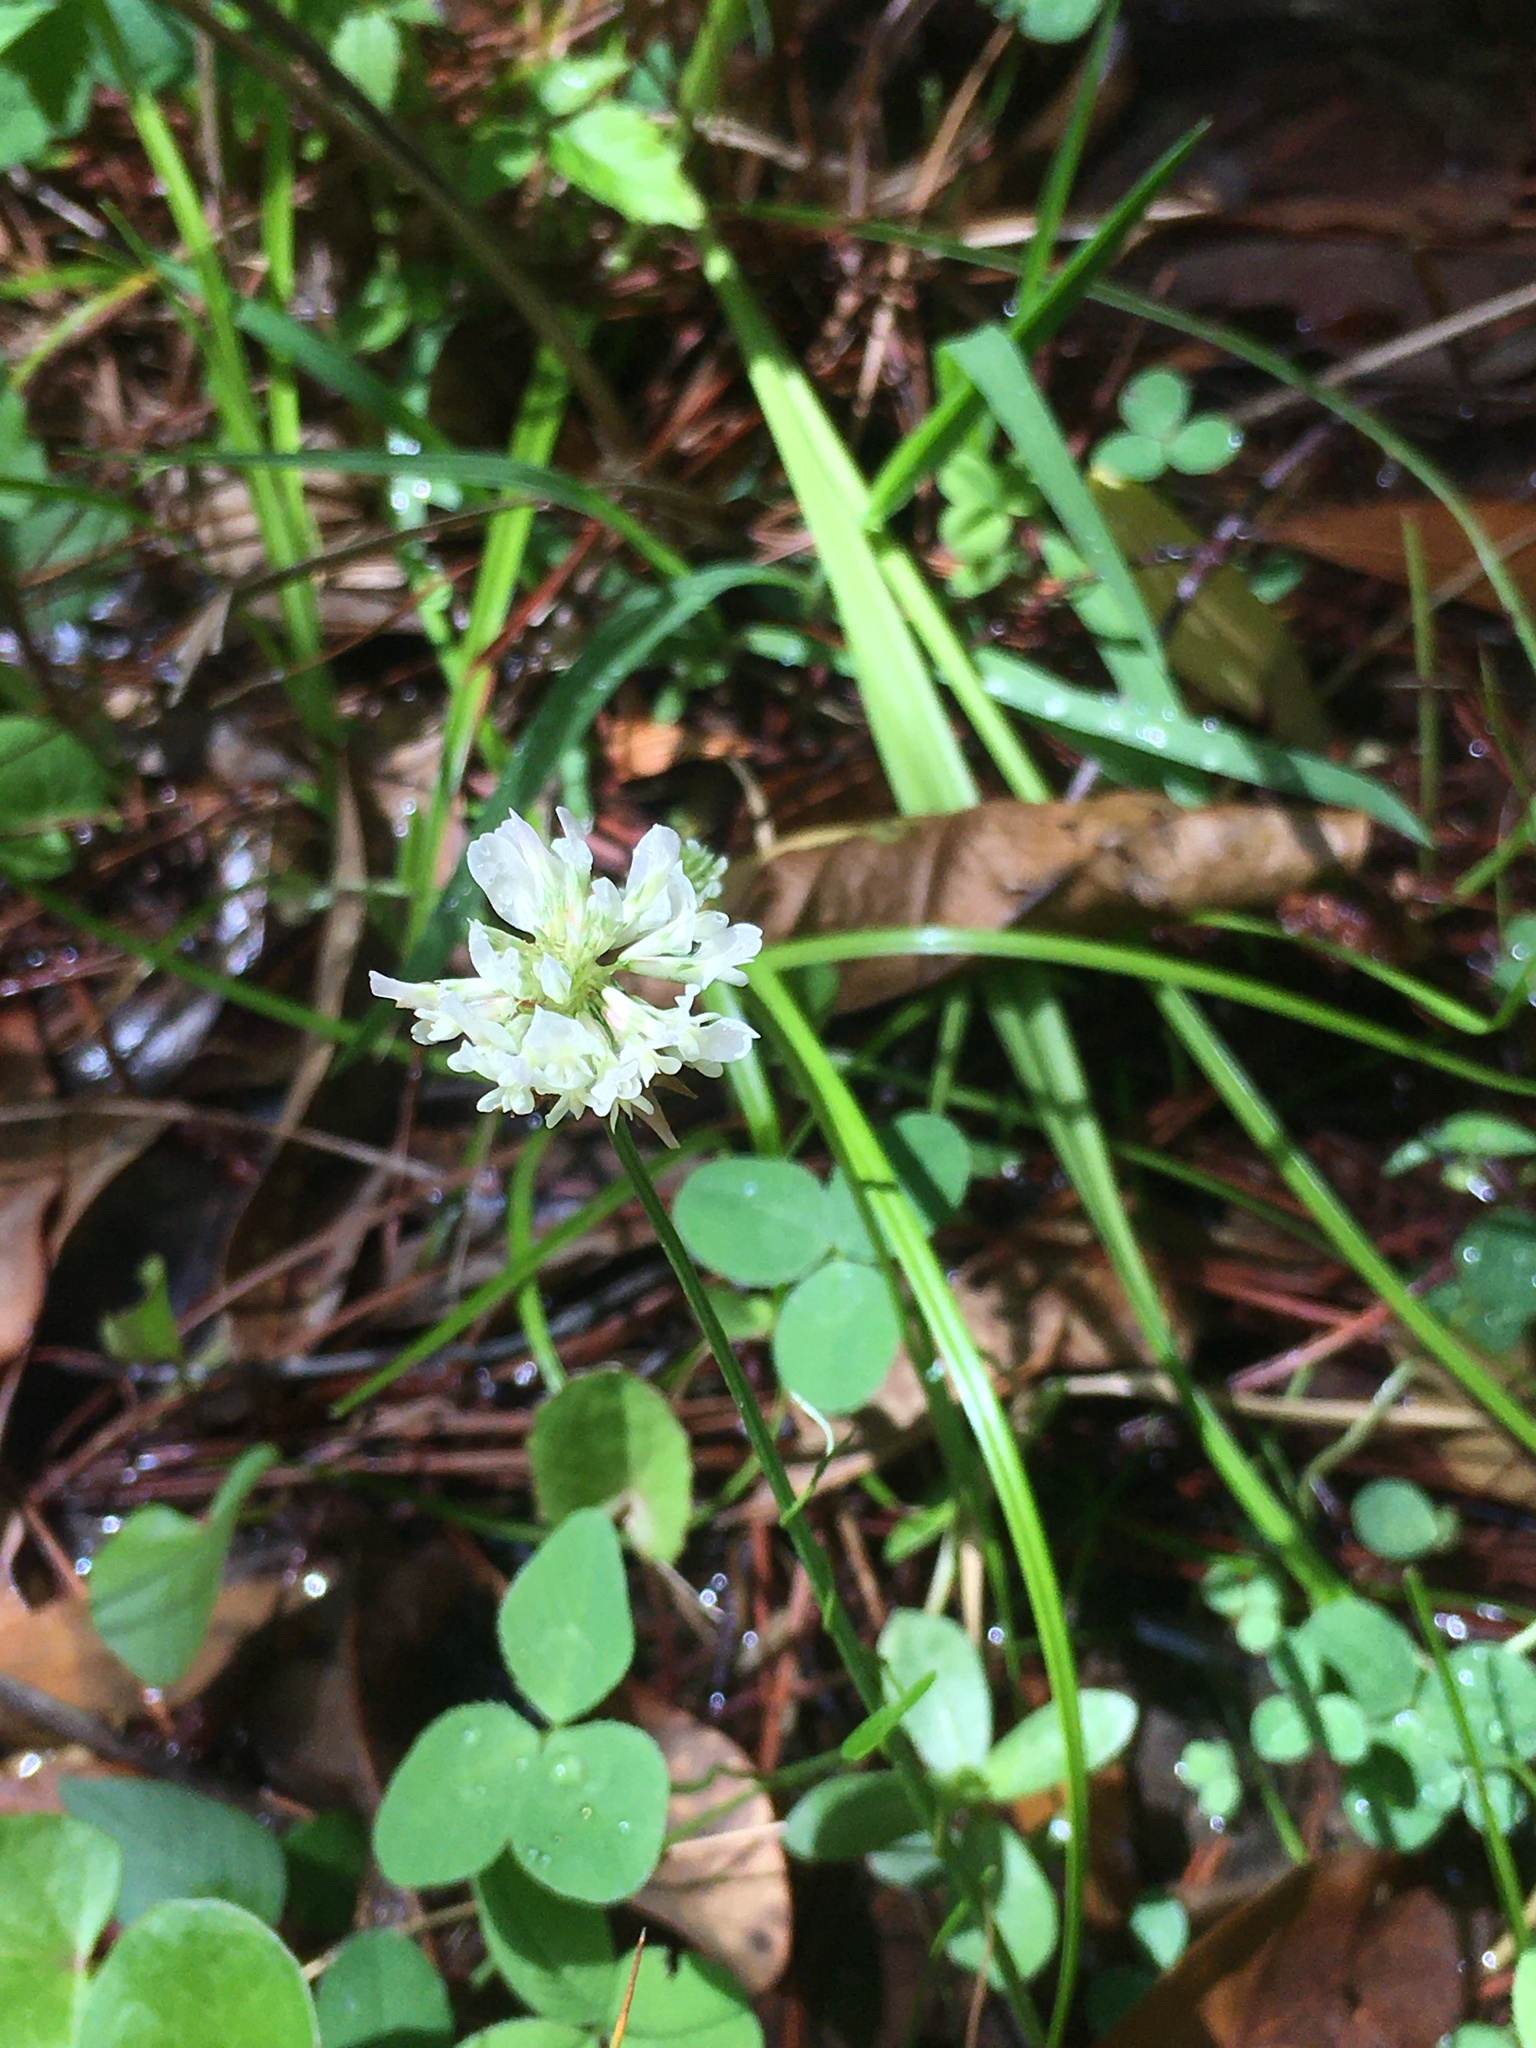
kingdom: Plantae
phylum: Tracheophyta
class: Magnoliopsida
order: Fabales
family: Fabaceae
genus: Trifolium
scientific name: Trifolium repens
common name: White clover
